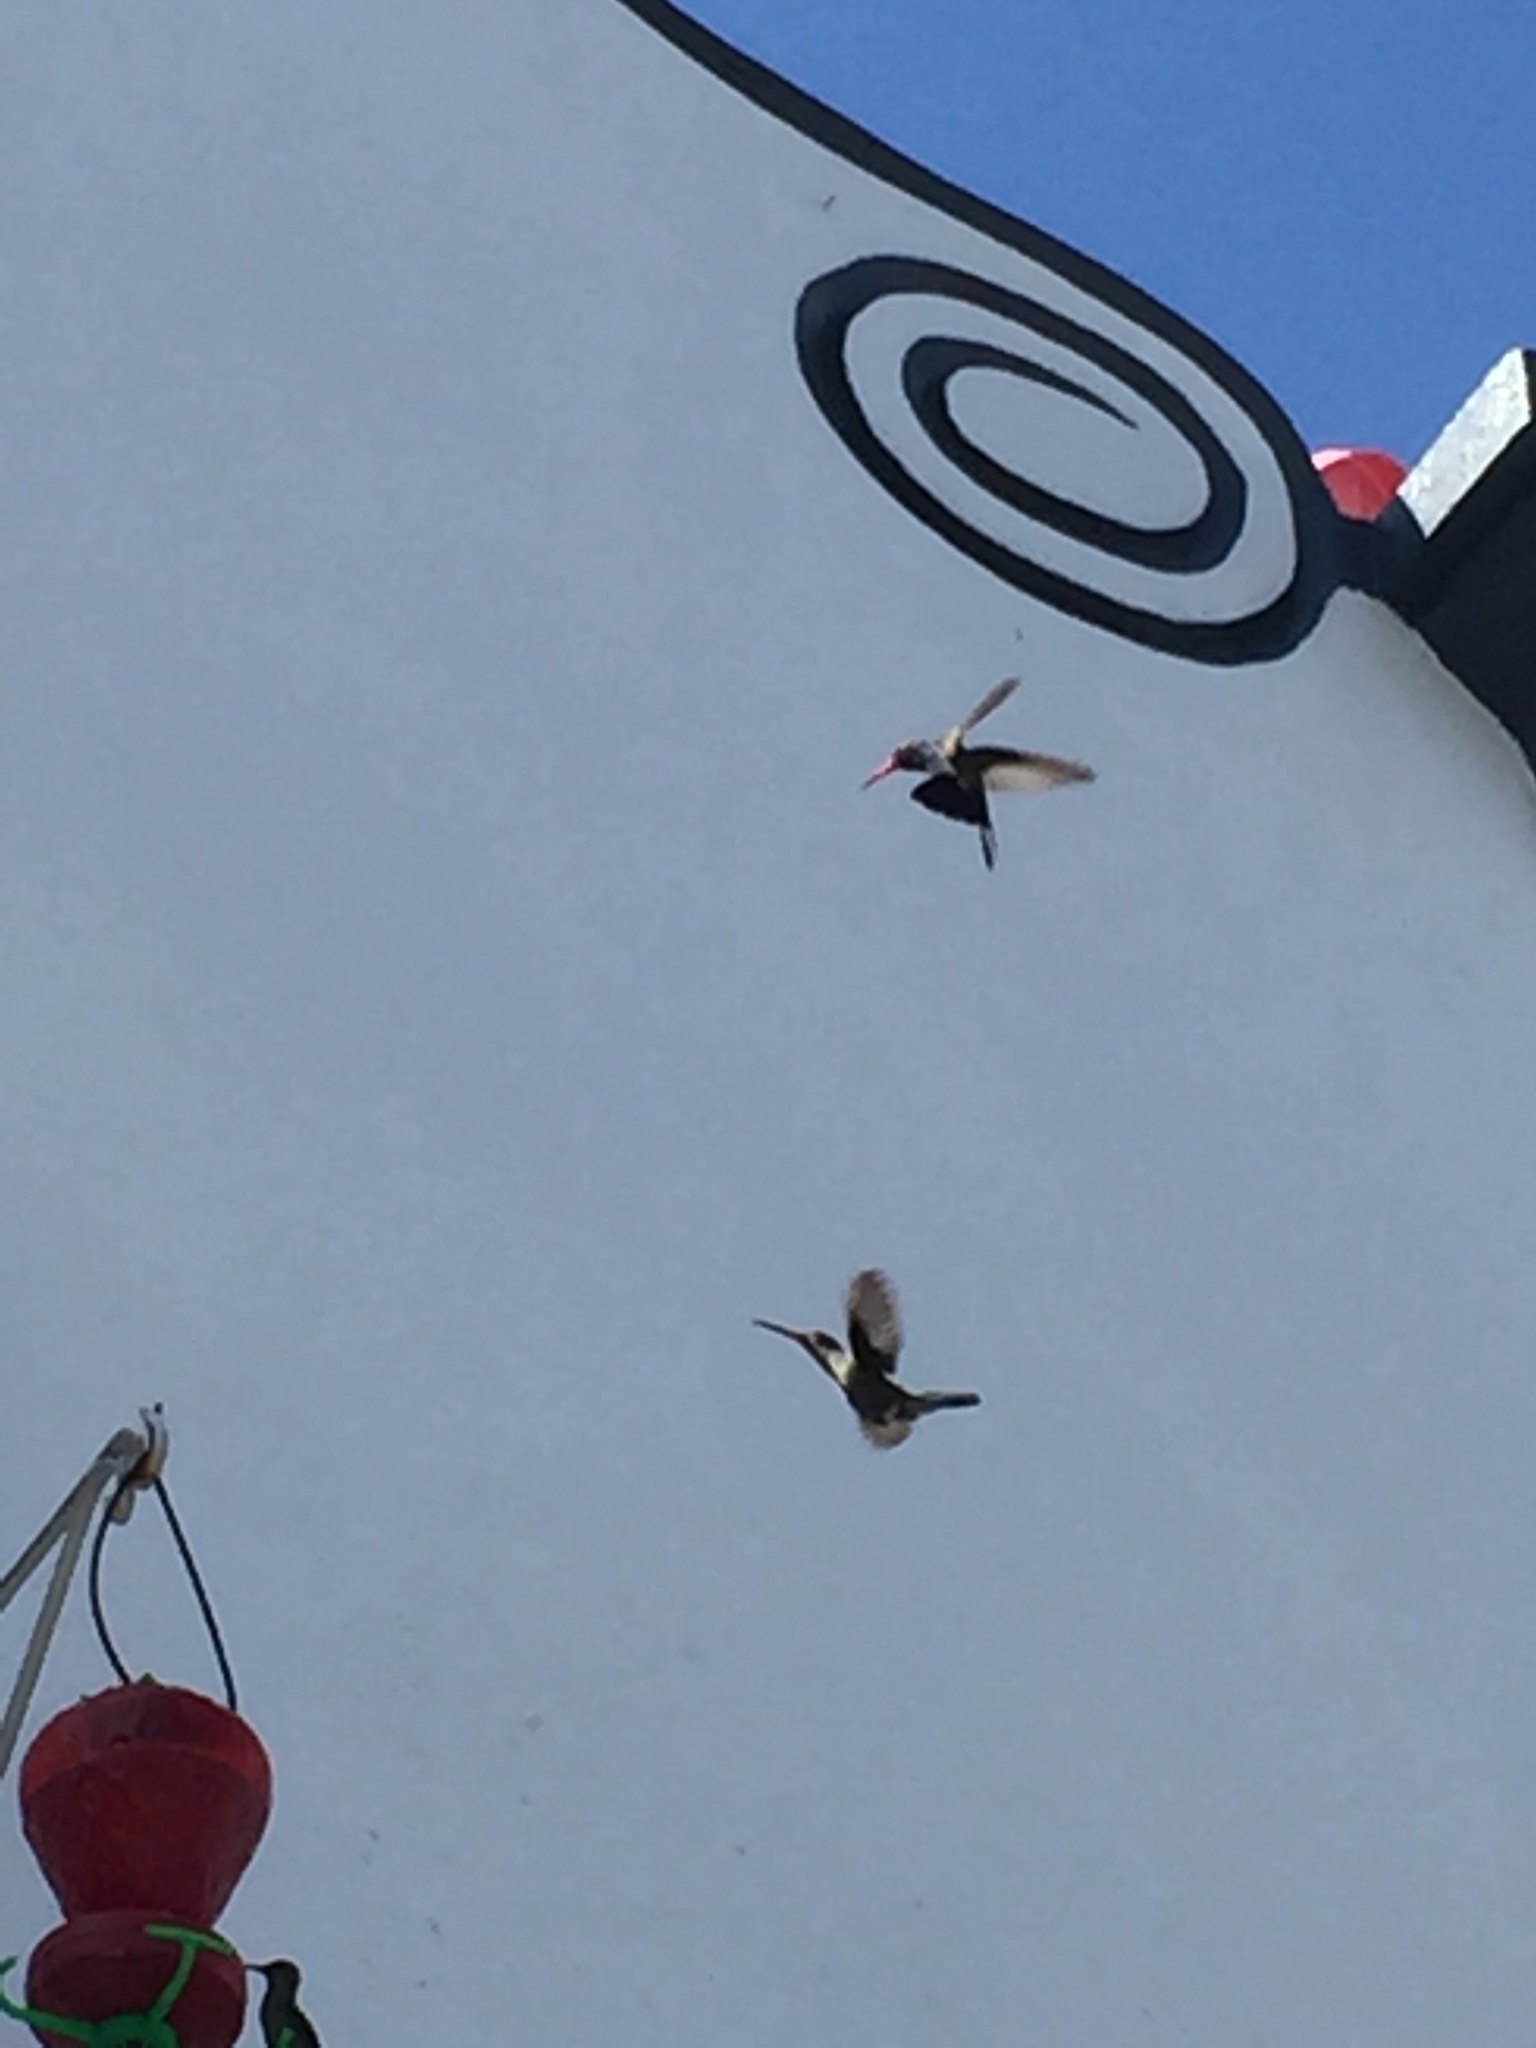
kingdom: Animalia
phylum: Chordata
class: Aves
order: Apodiformes
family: Trochilidae
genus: Cynanthus
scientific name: Cynanthus latirostris
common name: Broad-billed hummingbird
